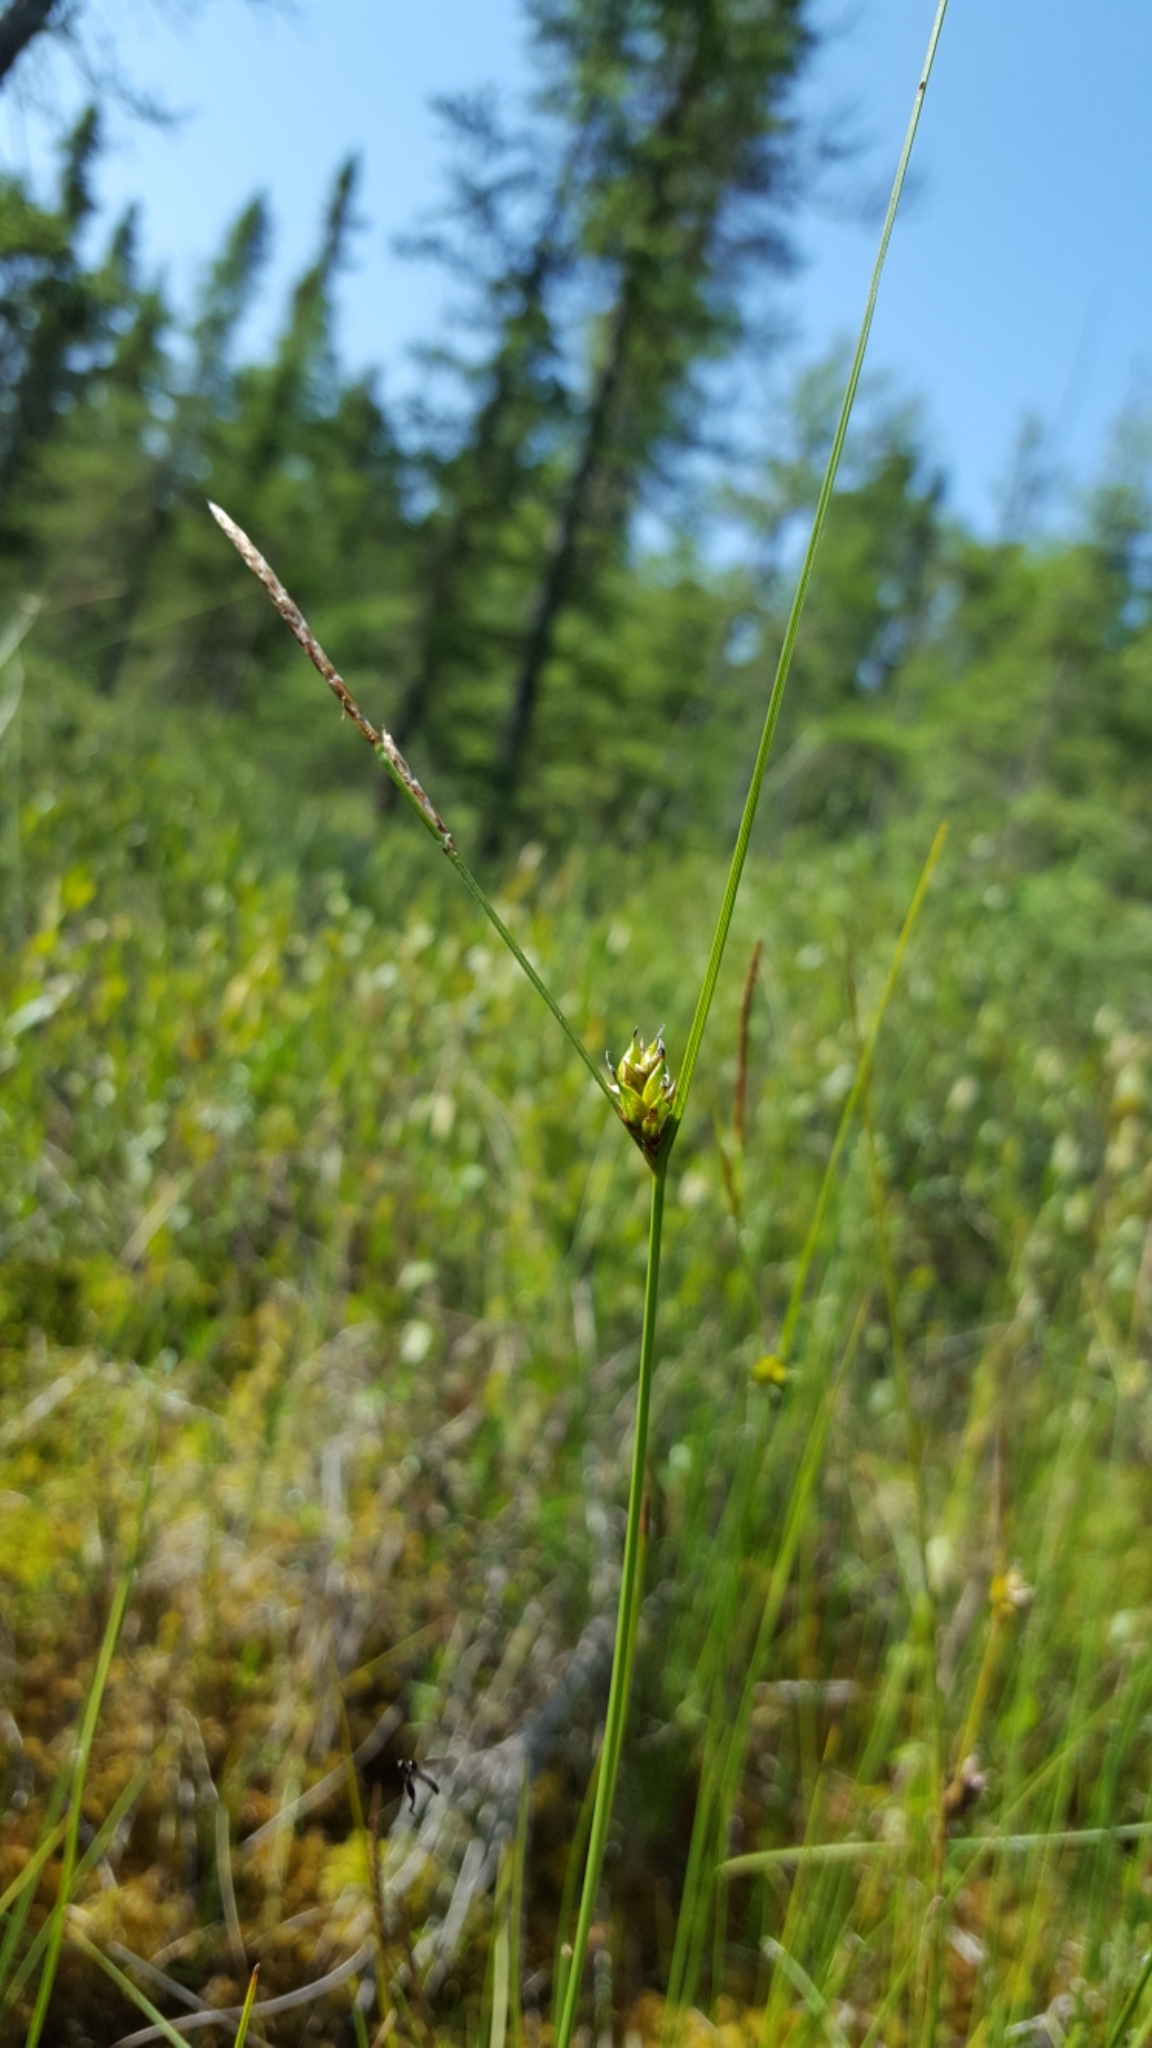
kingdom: Plantae
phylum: Tracheophyta
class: Liliopsida
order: Poales
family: Cyperaceae
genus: Carex
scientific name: Carex oligosperma
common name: Few-seed sedge
